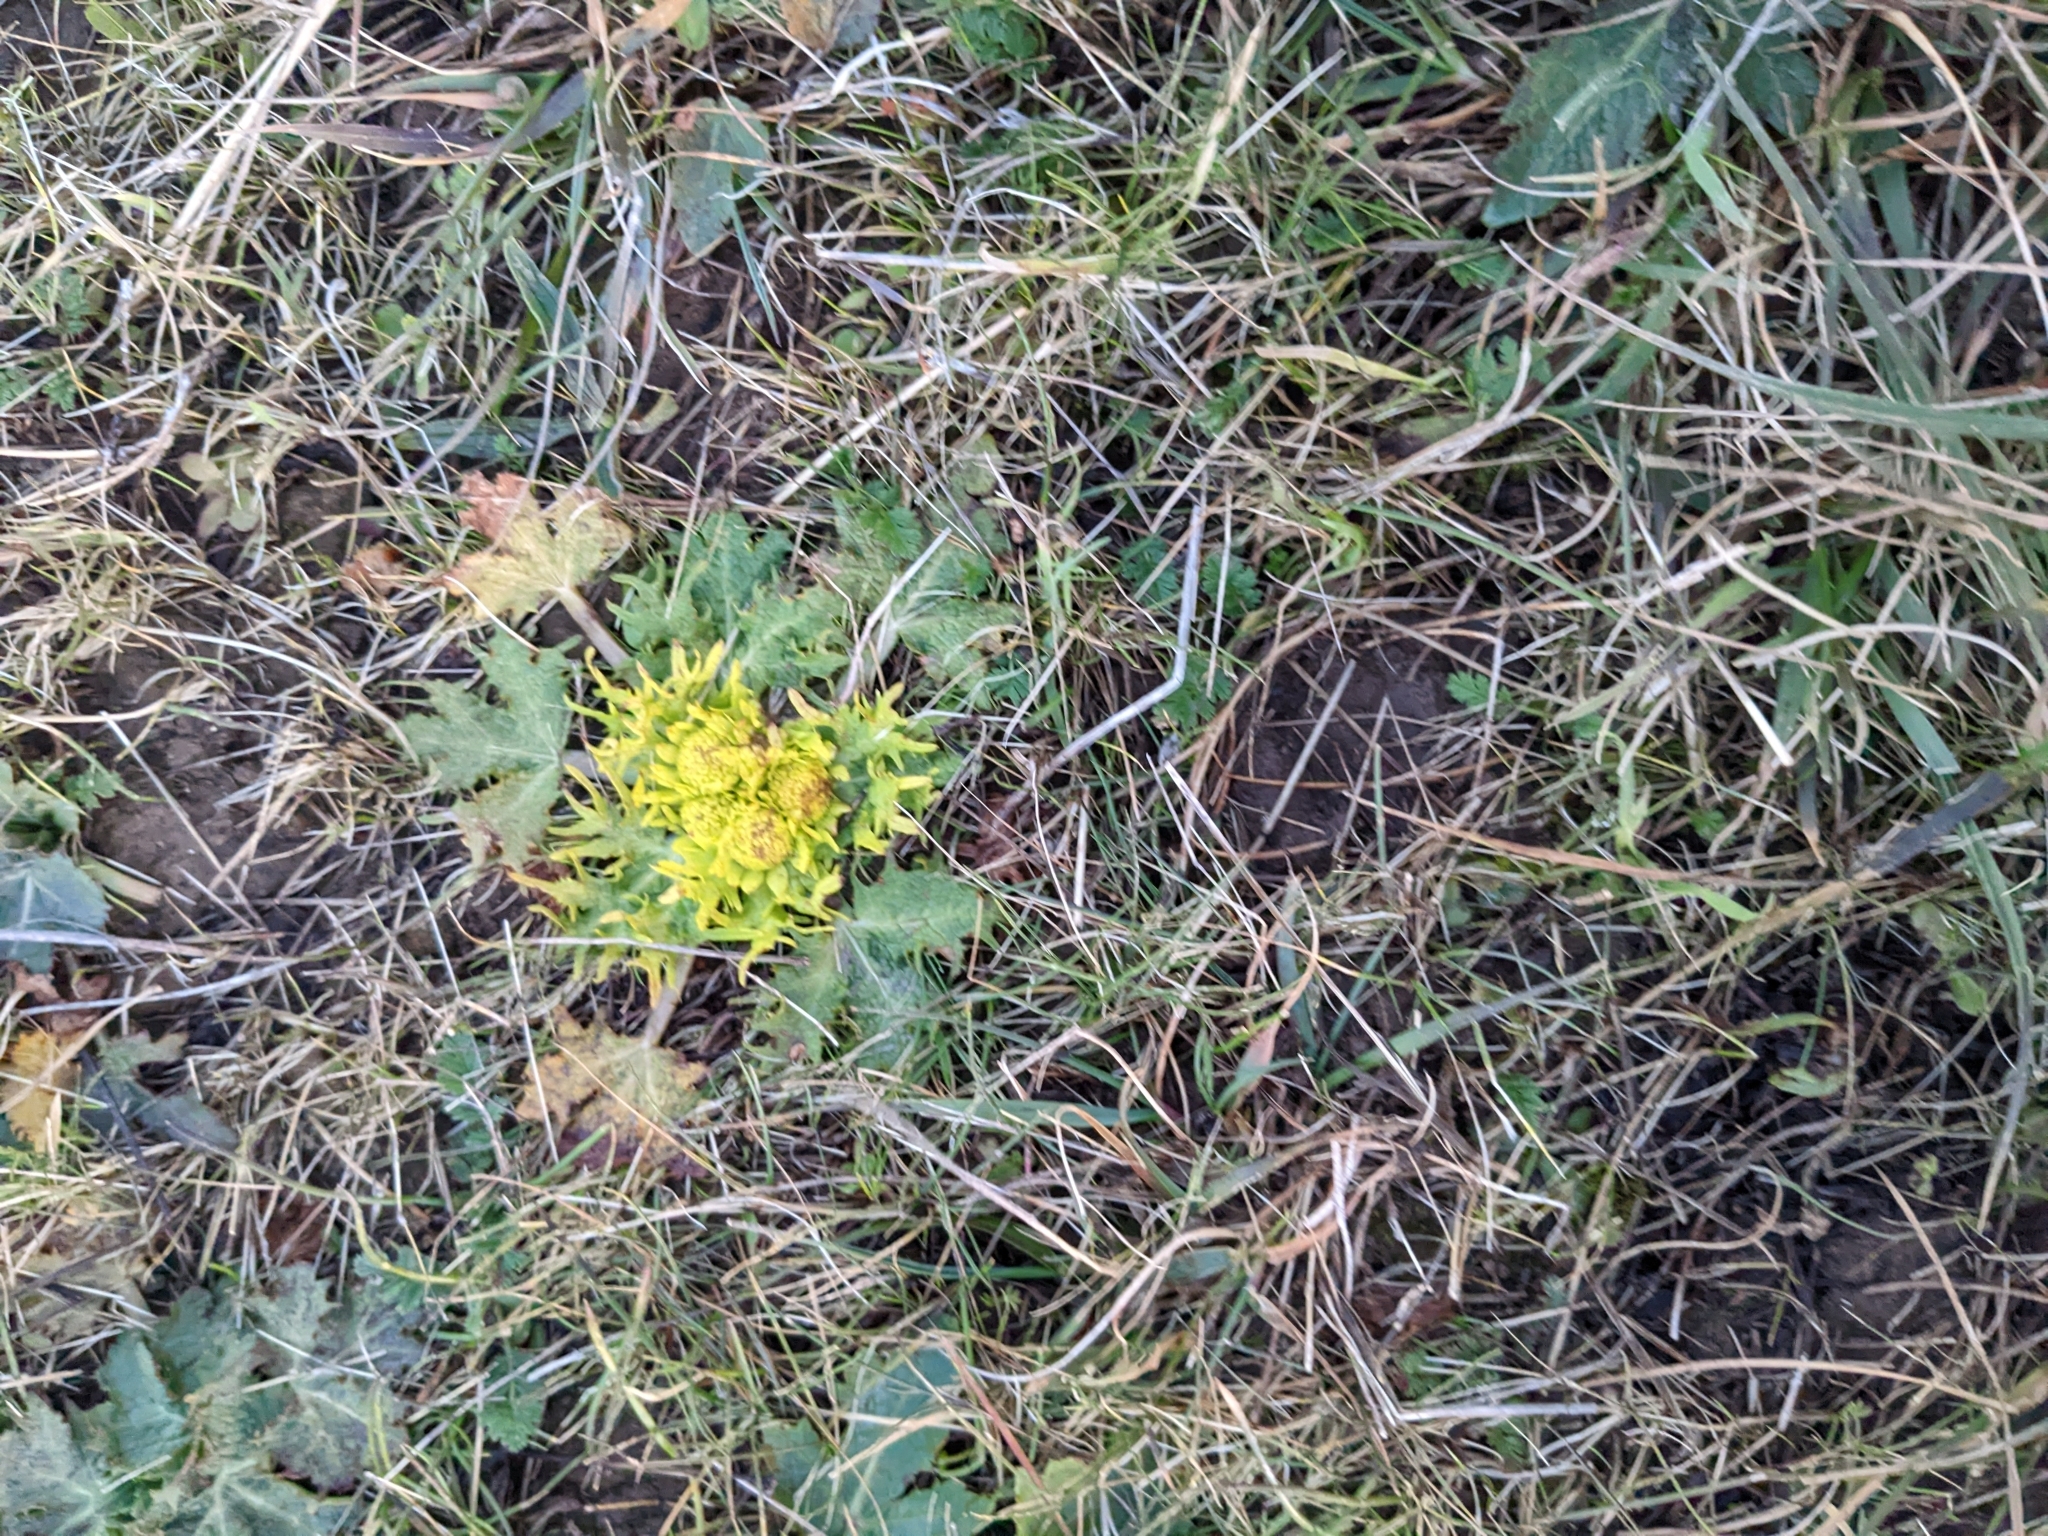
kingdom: Plantae
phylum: Tracheophyta
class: Magnoliopsida
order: Apiales
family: Apiaceae
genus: Sanicula
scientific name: Sanicula arctopoides
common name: Footsteps-of-spring
